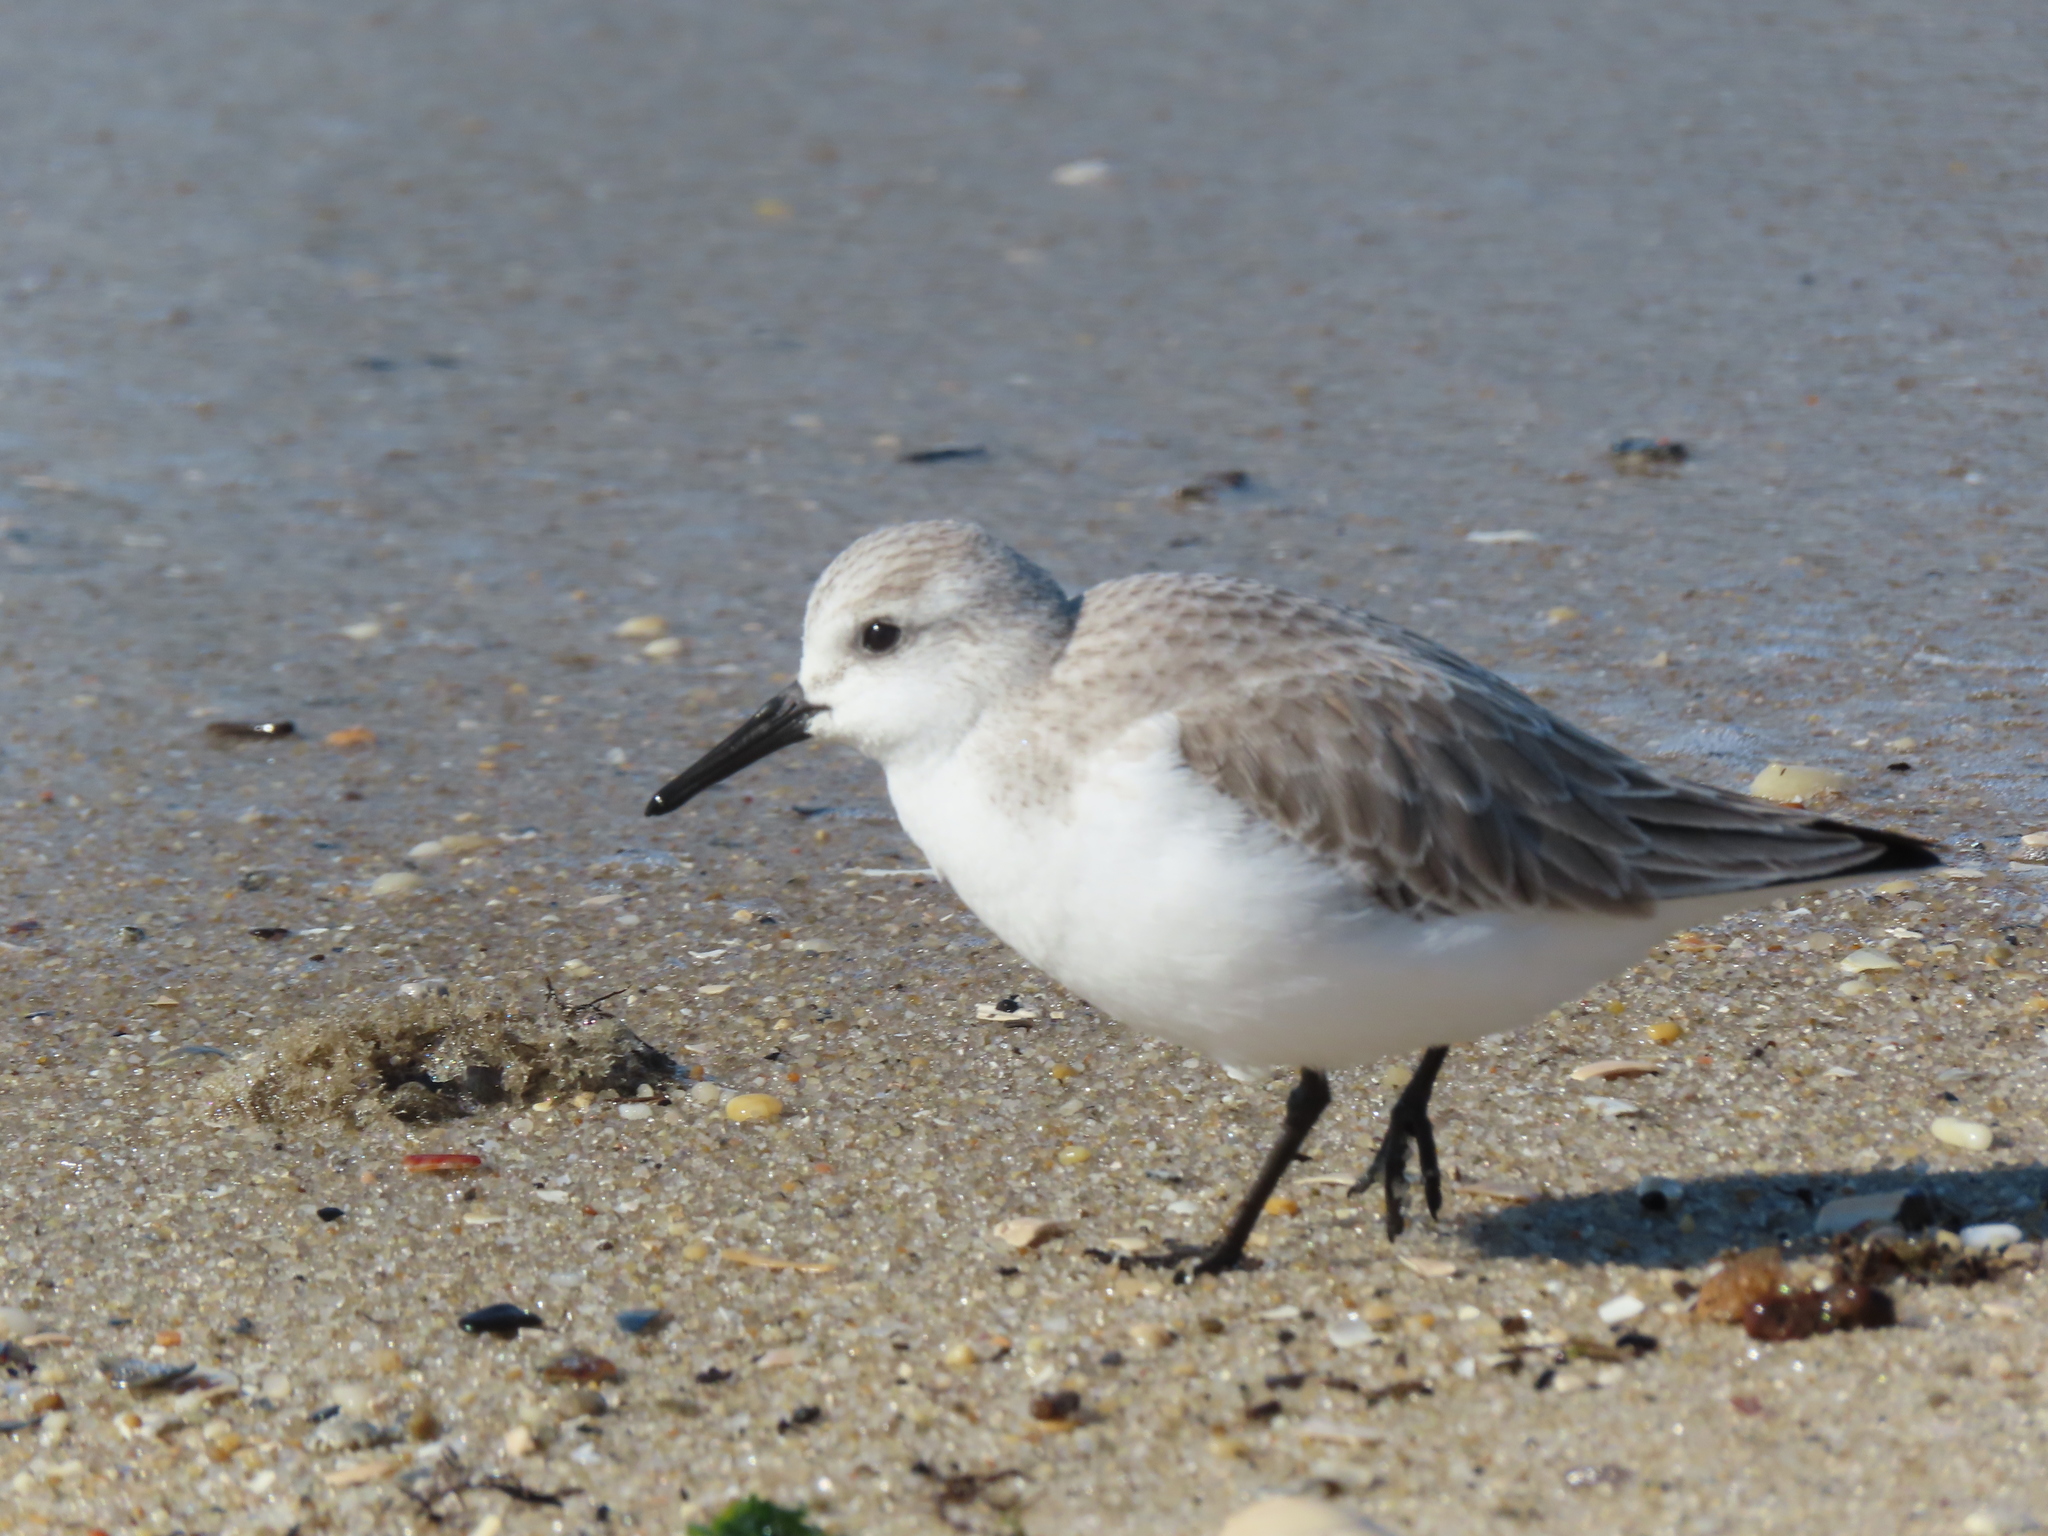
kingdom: Animalia
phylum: Chordata
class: Aves
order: Charadriiformes
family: Scolopacidae
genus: Calidris
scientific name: Calidris alba
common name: Sanderling
